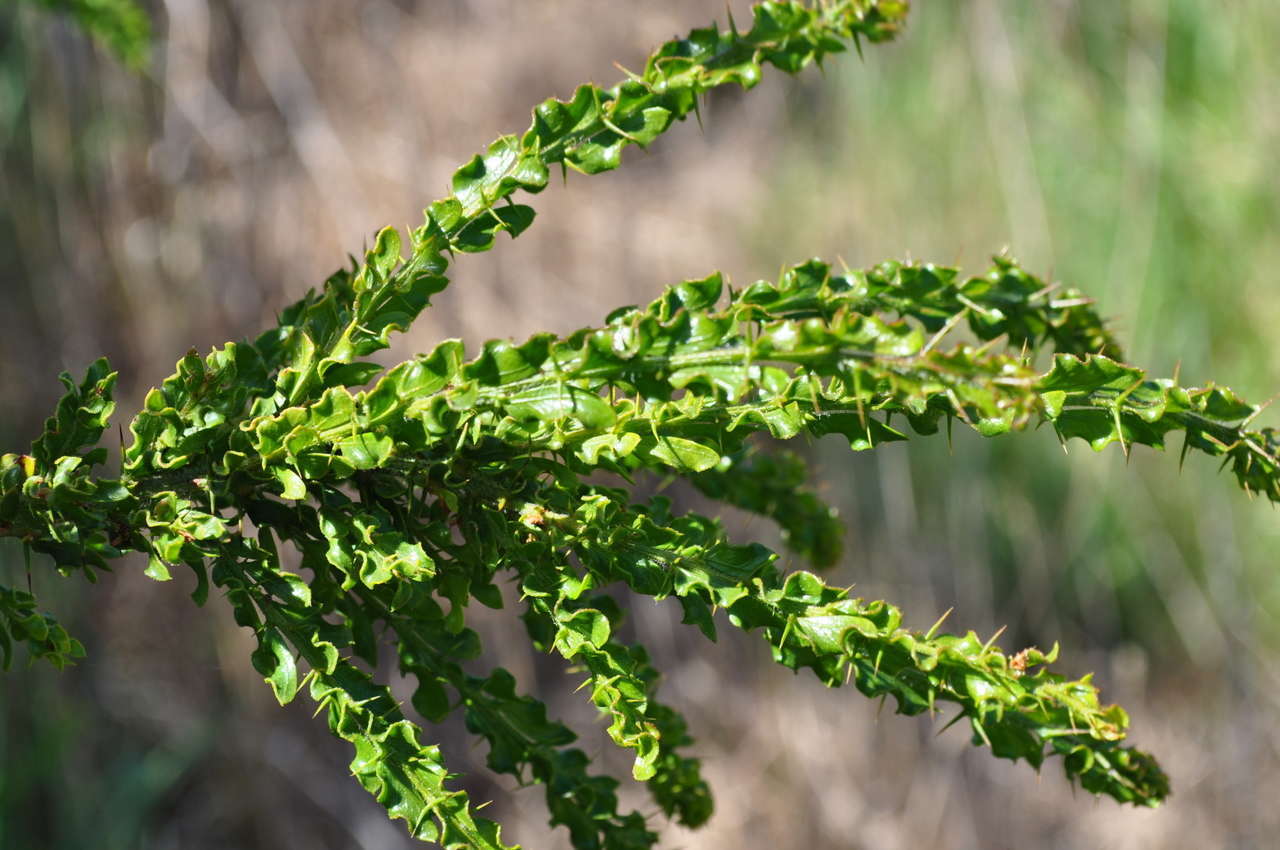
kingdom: Plantae
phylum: Tracheophyta
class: Magnoliopsida
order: Fabales
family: Fabaceae
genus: Acacia
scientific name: Acacia paradoxa
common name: Paradox acacia
